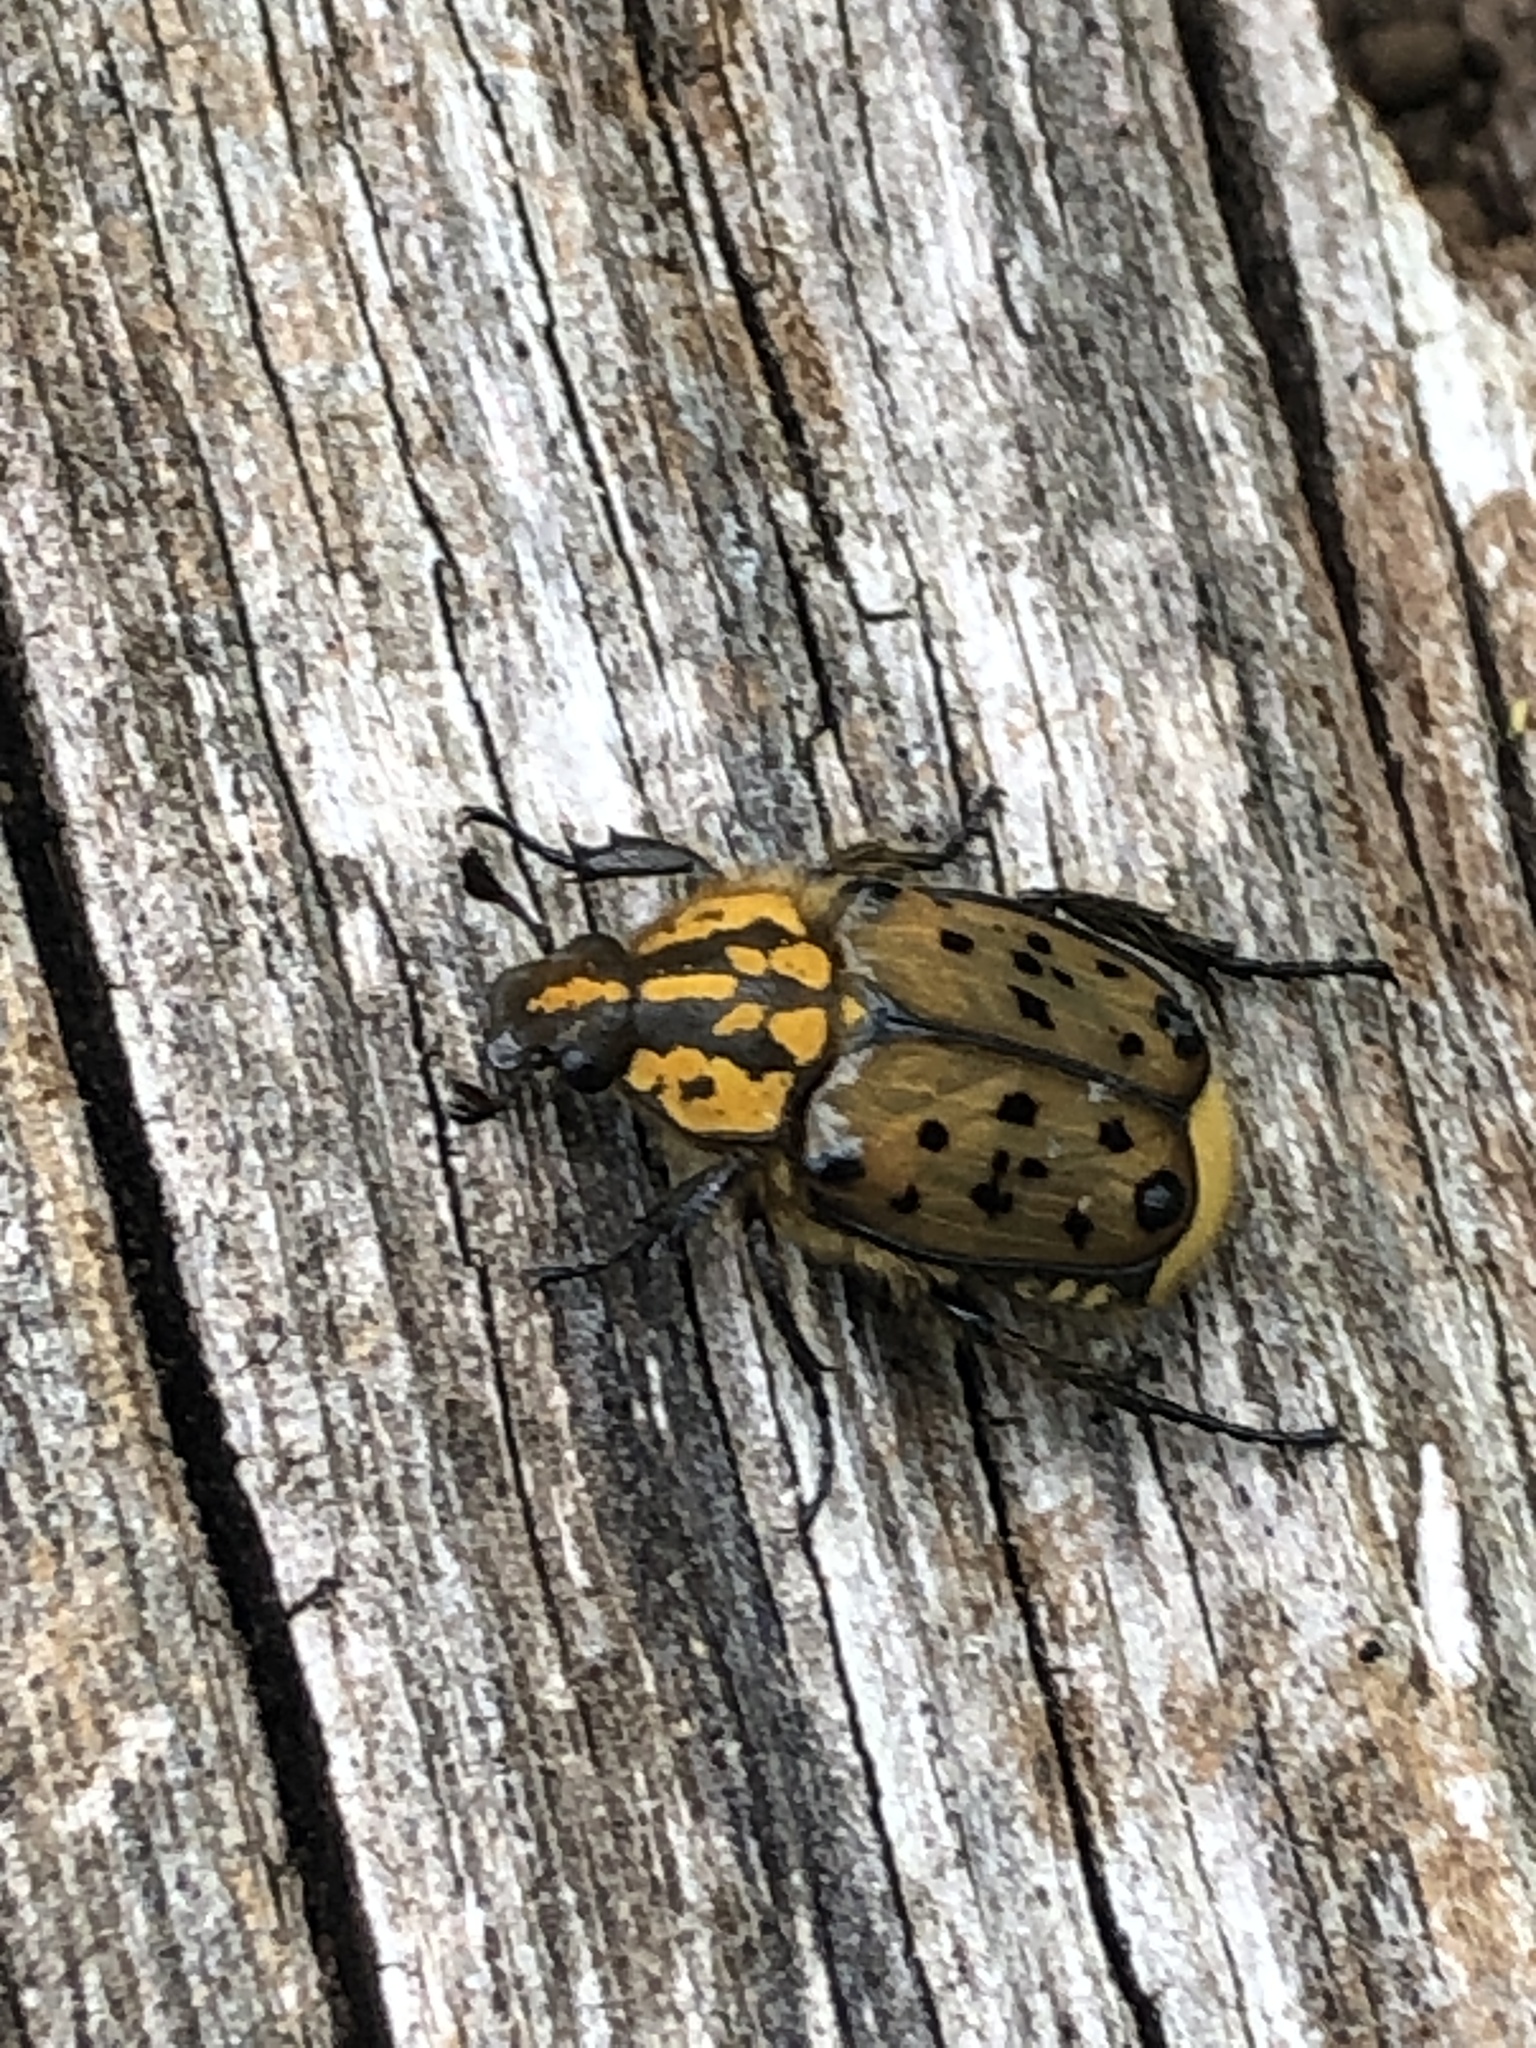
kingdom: Animalia
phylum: Arthropoda
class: Insecta
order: Coleoptera
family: Scarabaeidae
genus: Gnorimella
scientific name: Gnorimella maculosa
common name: Maculate flower beetle
